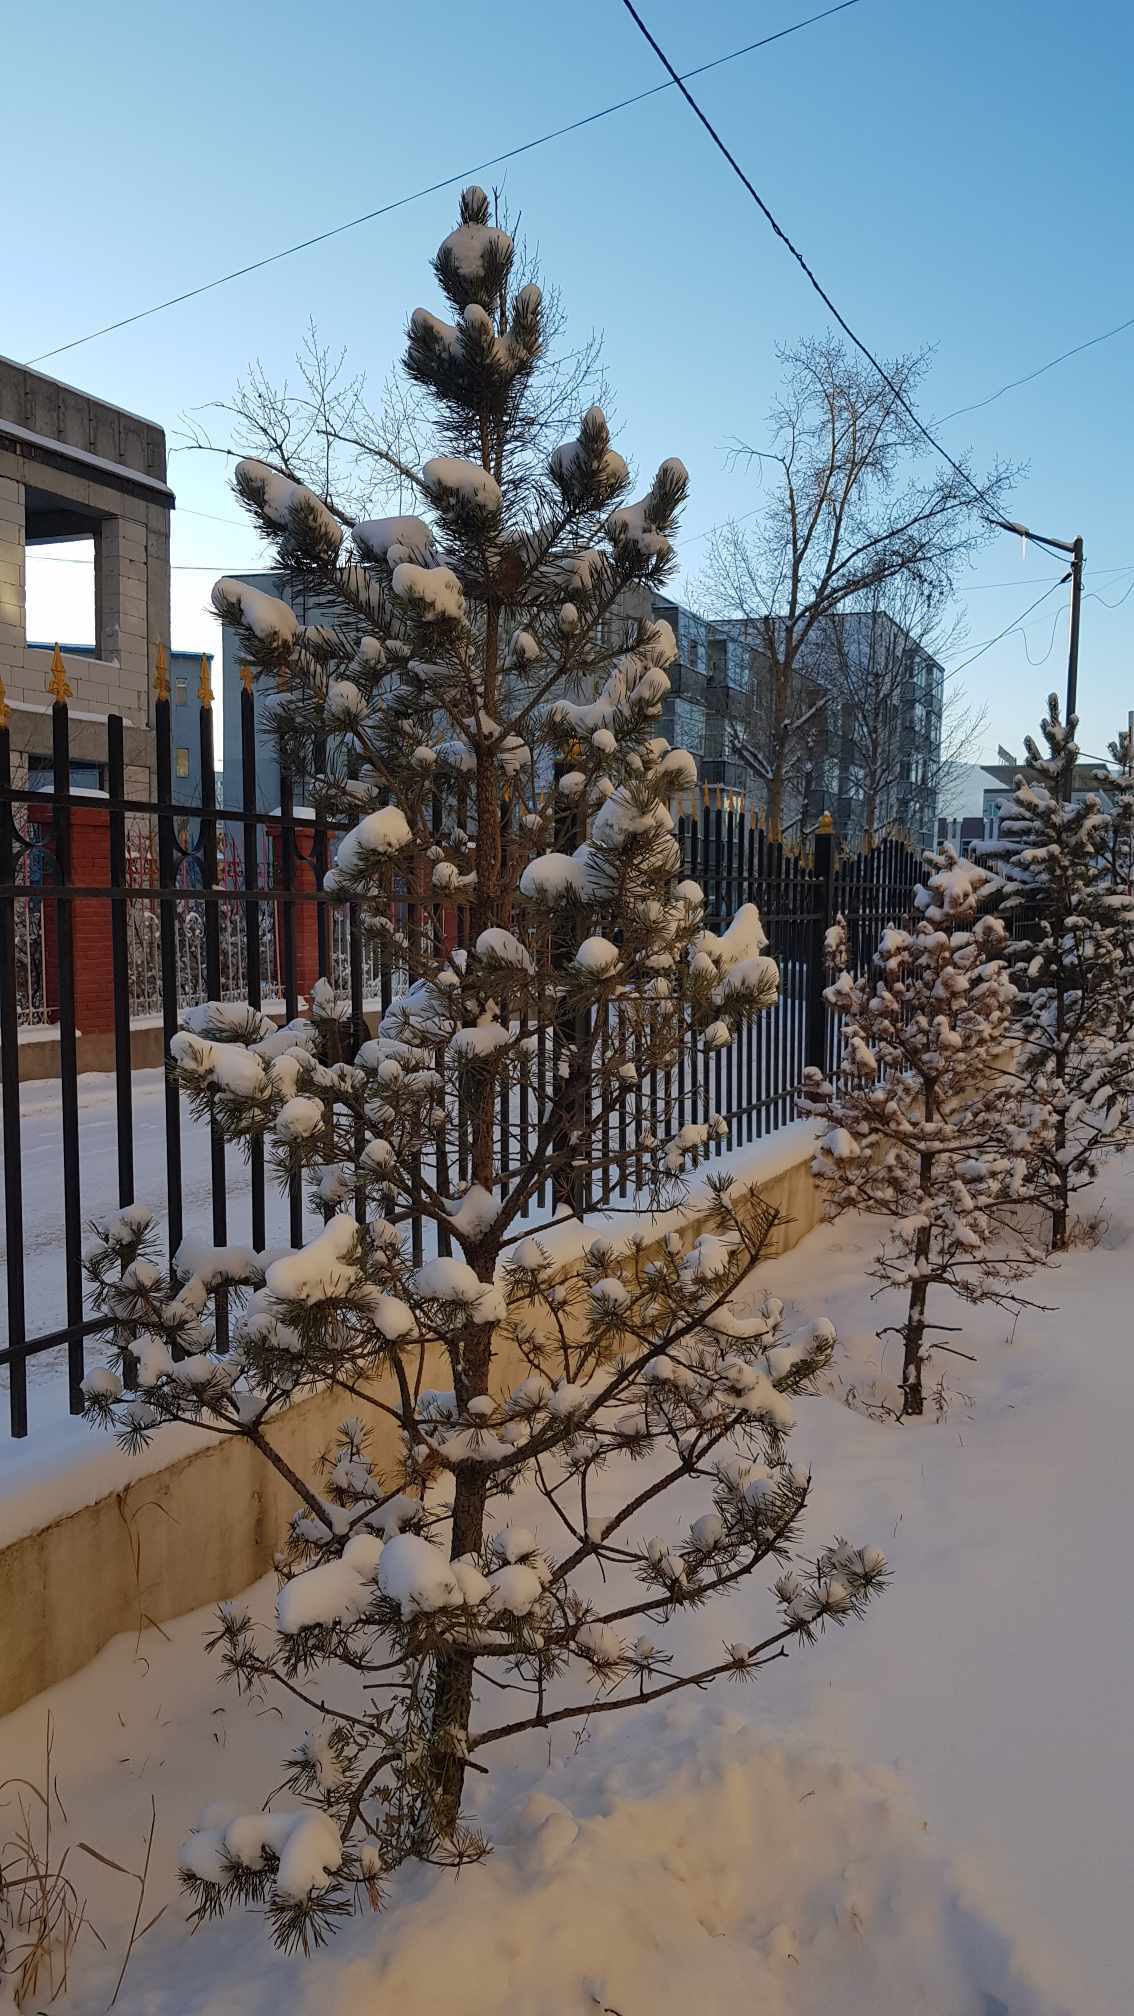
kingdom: Plantae
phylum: Tracheophyta
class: Pinopsida
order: Pinales
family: Pinaceae
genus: Pinus
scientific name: Pinus sylvestris
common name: Scots pine
